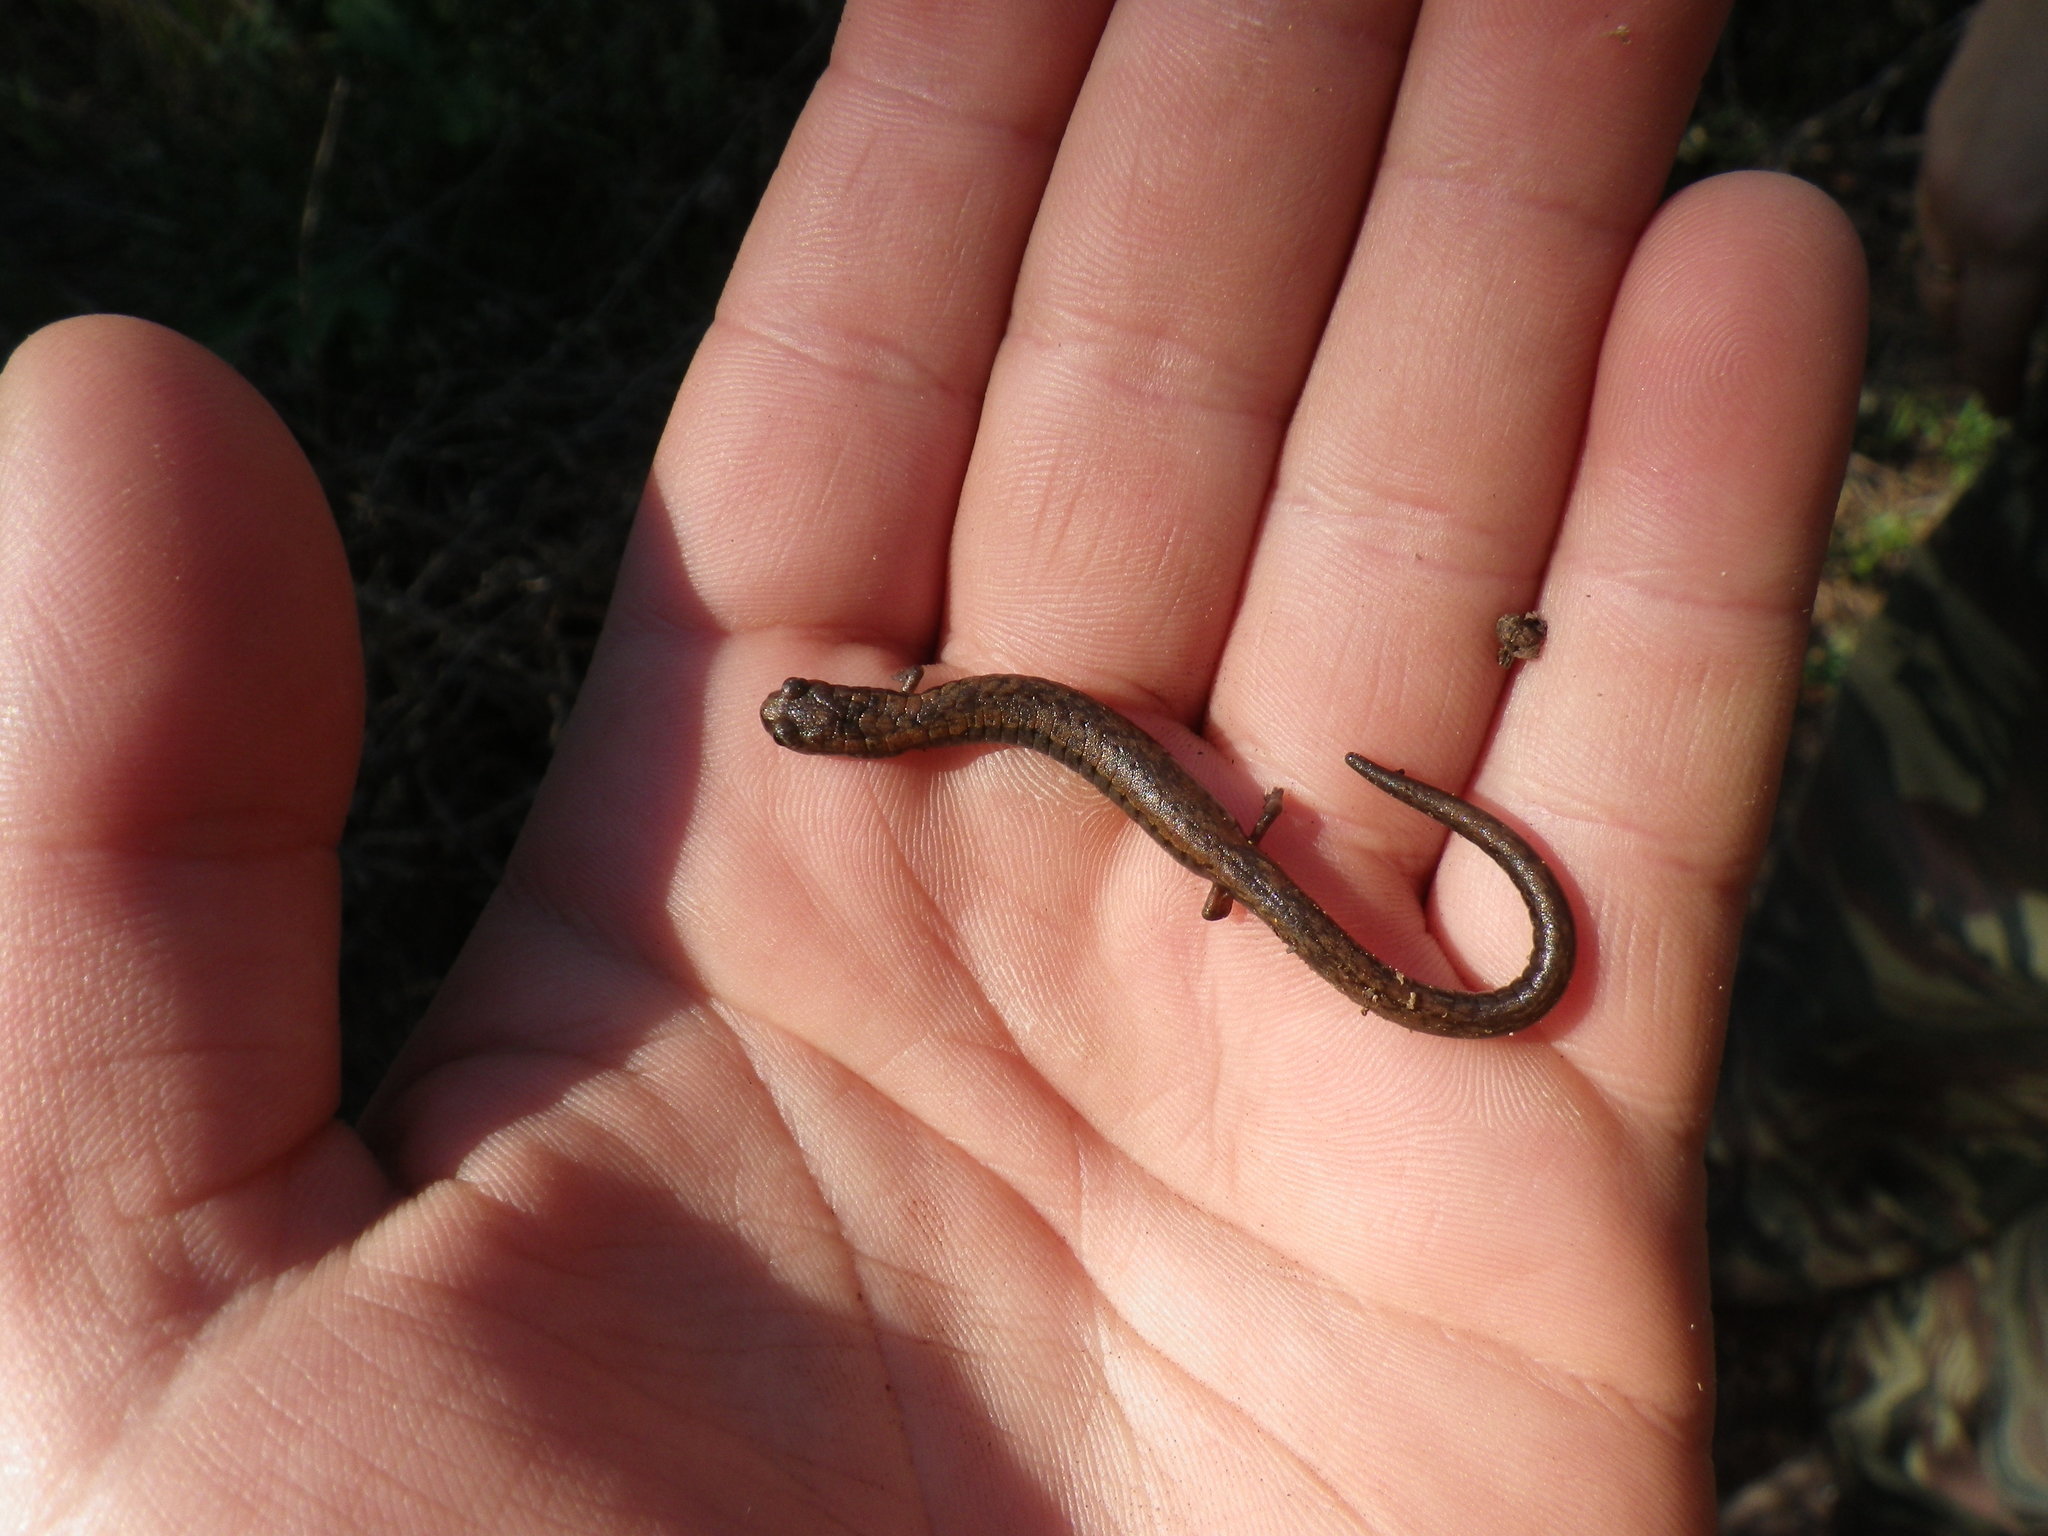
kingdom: Animalia
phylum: Chordata
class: Amphibia
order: Caudata
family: Plethodontidae
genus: Batrachoseps
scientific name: Batrachoseps attenuatus
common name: California slender salamander
